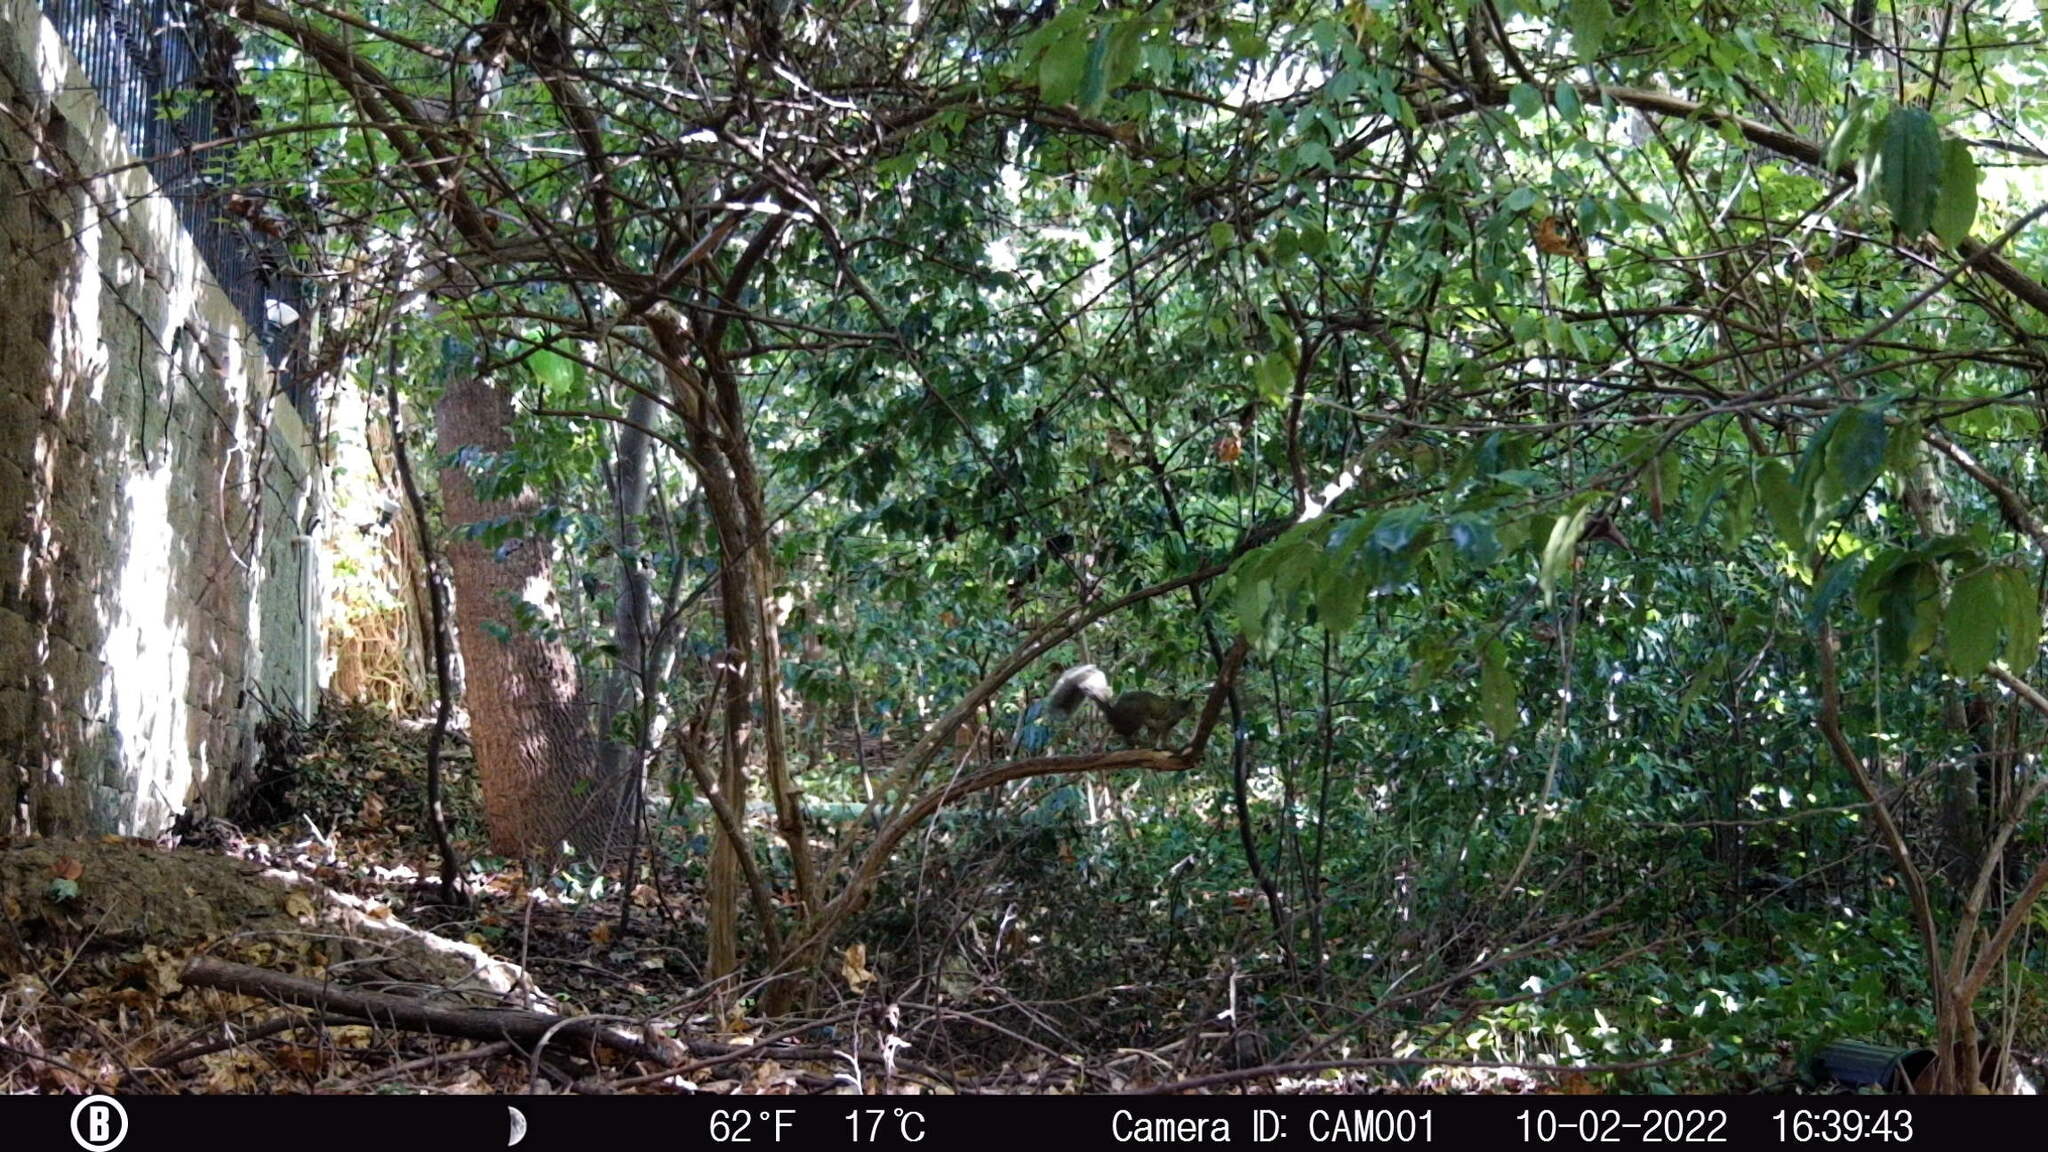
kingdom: Animalia
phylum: Chordata
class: Mammalia
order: Rodentia
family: Sciuridae
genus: Sciurus
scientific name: Sciurus carolinensis
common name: Eastern gray squirrel
